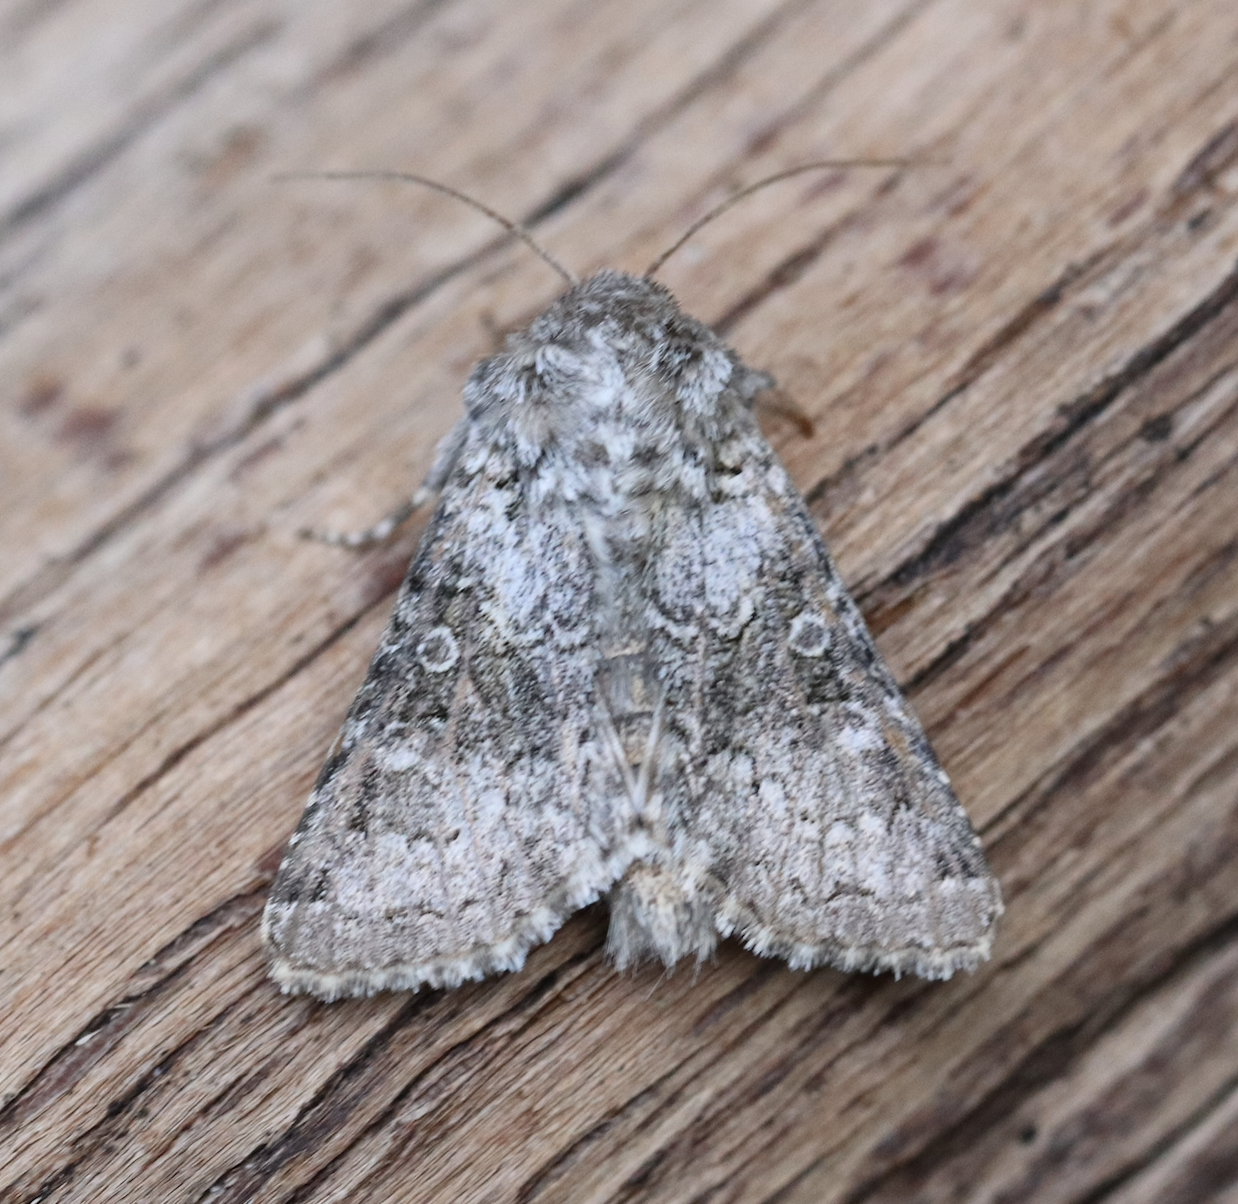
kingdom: Animalia
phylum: Arthropoda
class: Insecta
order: Lepidoptera
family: Noctuidae
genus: Hecatera
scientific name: Hecatera bicolorata
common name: Broad-barred white
